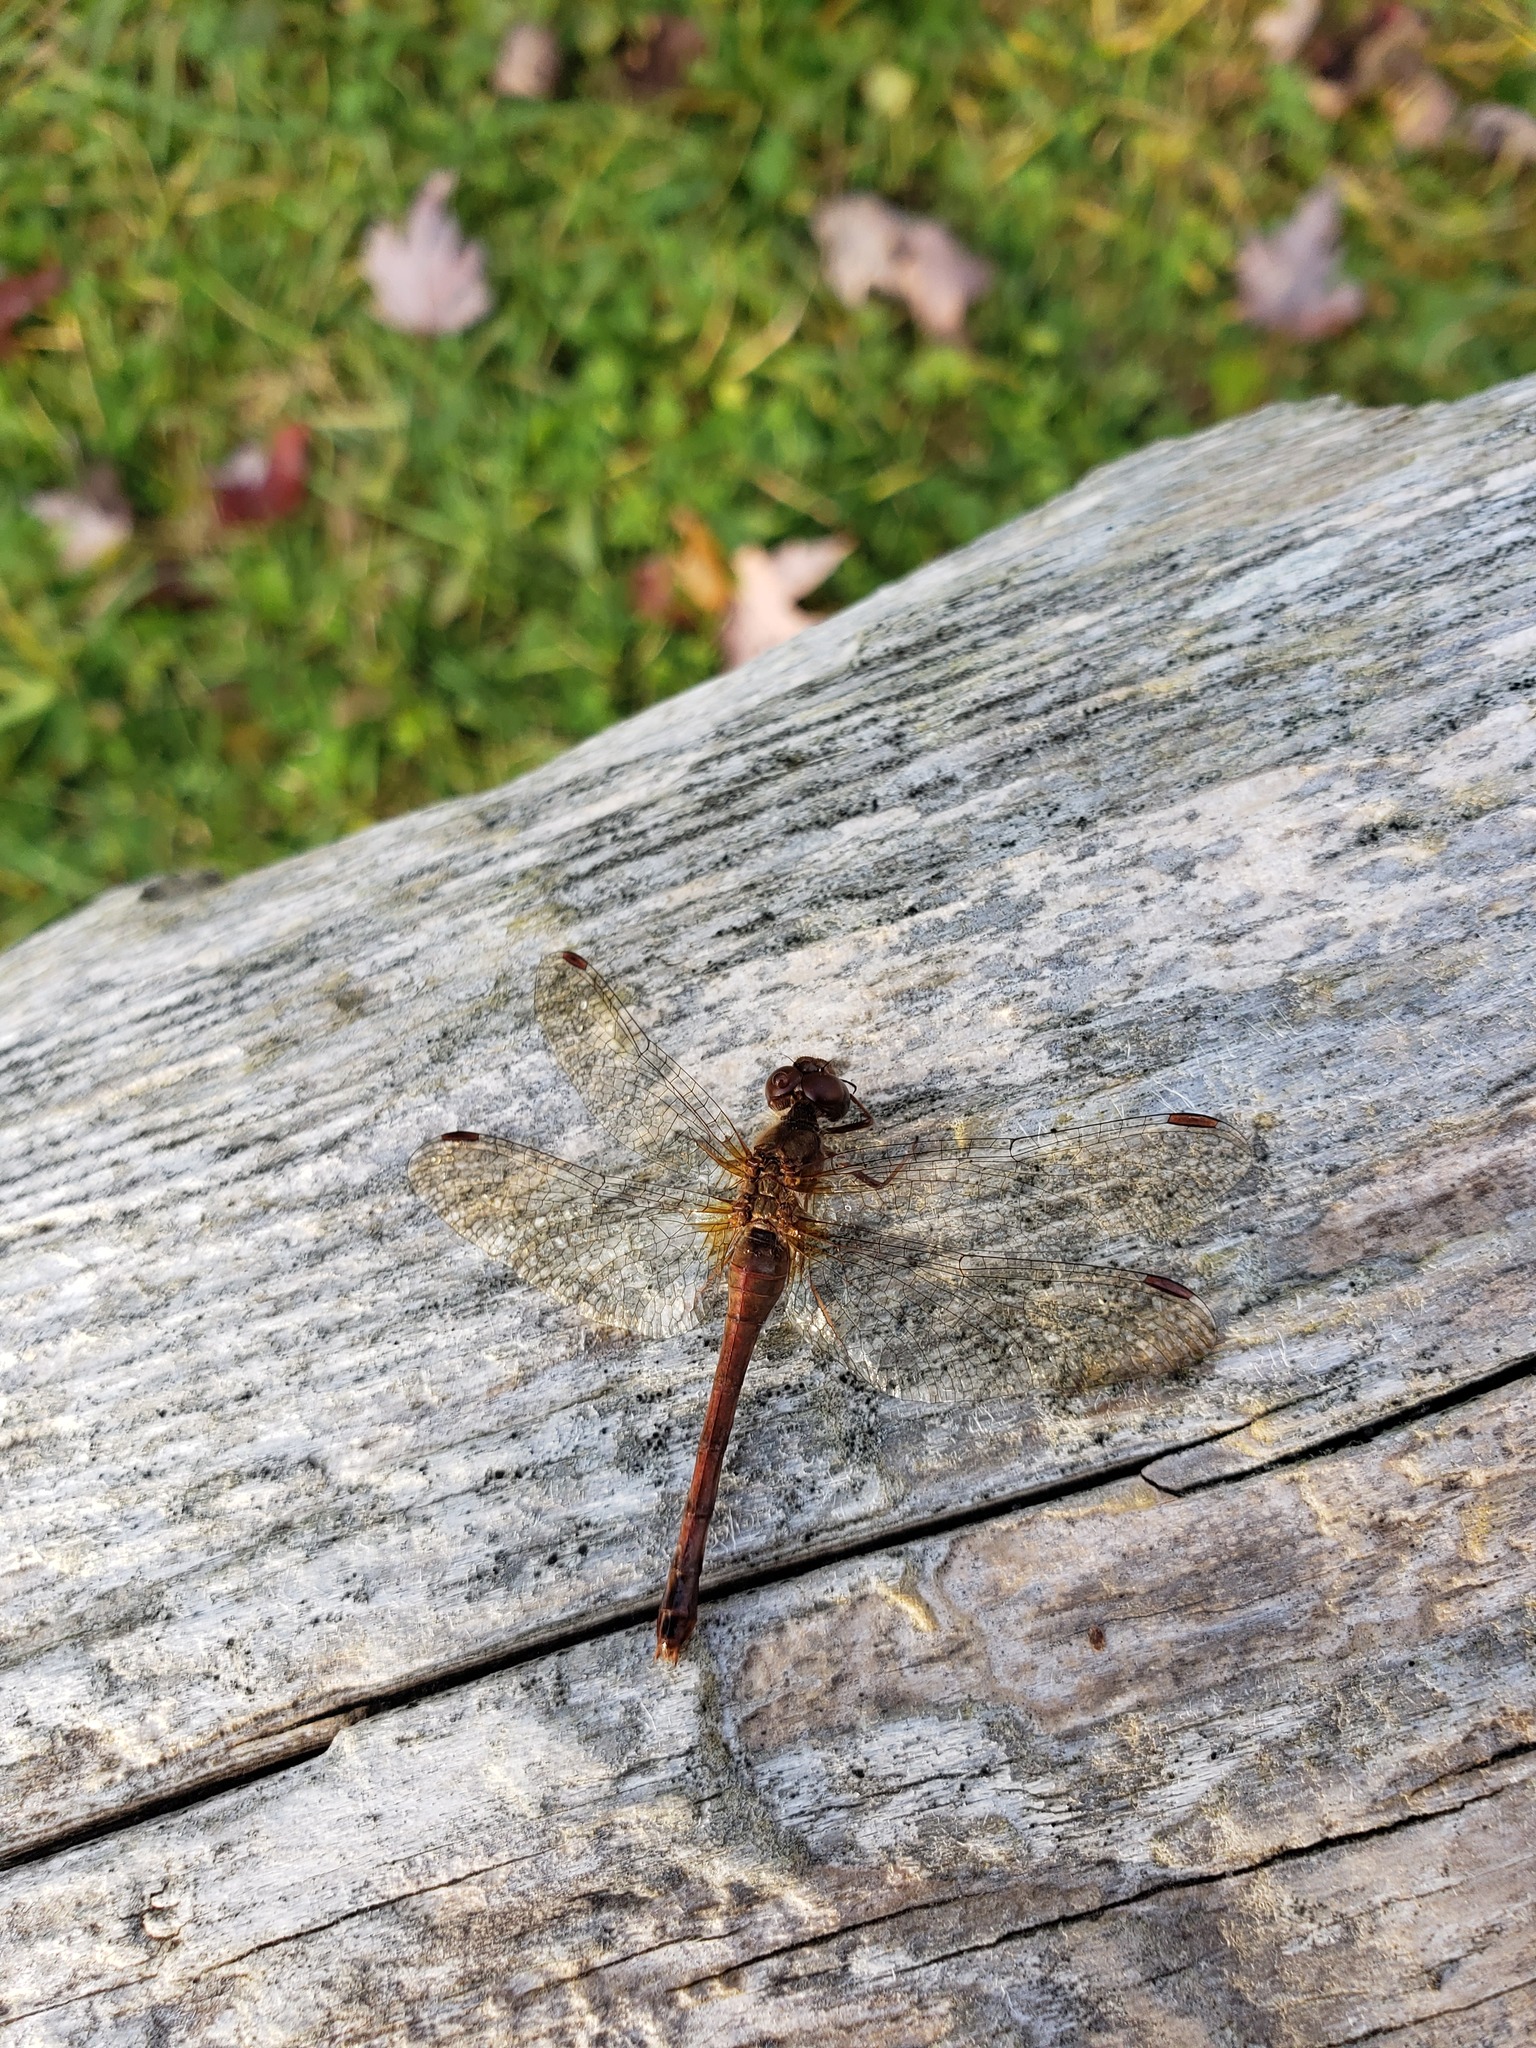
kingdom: Animalia
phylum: Arthropoda
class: Insecta
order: Odonata
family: Libellulidae
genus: Sympetrum
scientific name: Sympetrum vicinum
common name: Autumn meadowhawk
